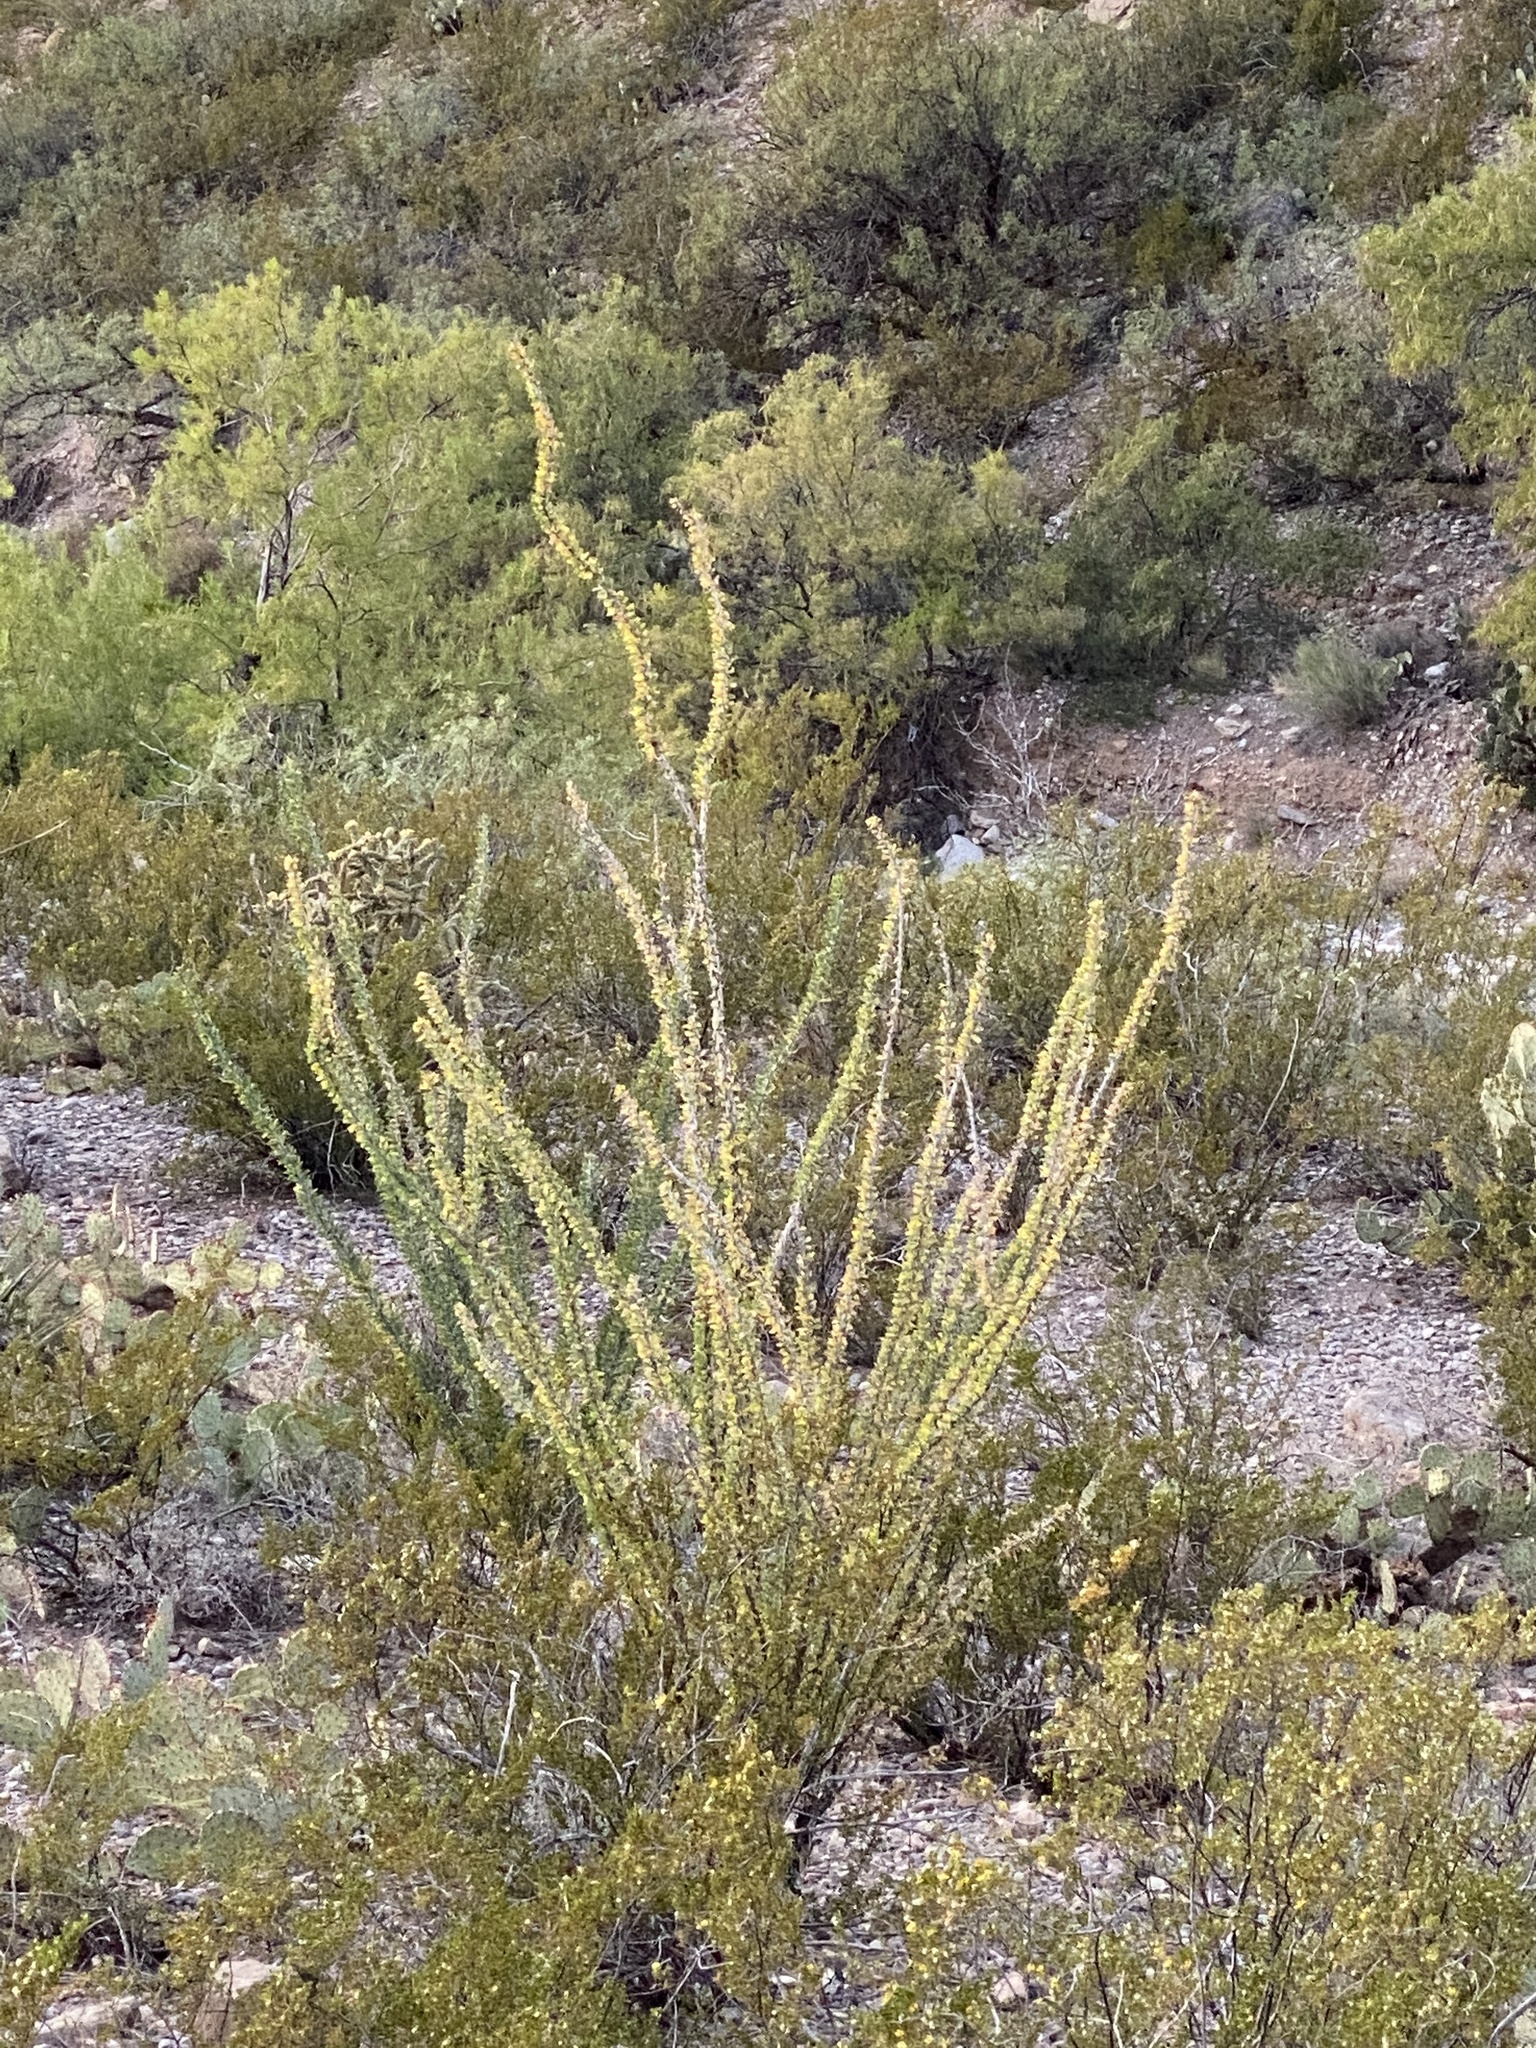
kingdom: Plantae
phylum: Tracheophyta
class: Magnoliopsida
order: Ericales
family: Fouquieriaceae
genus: Fouquieria
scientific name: Fouquieria splendens
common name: Vine-cactus
